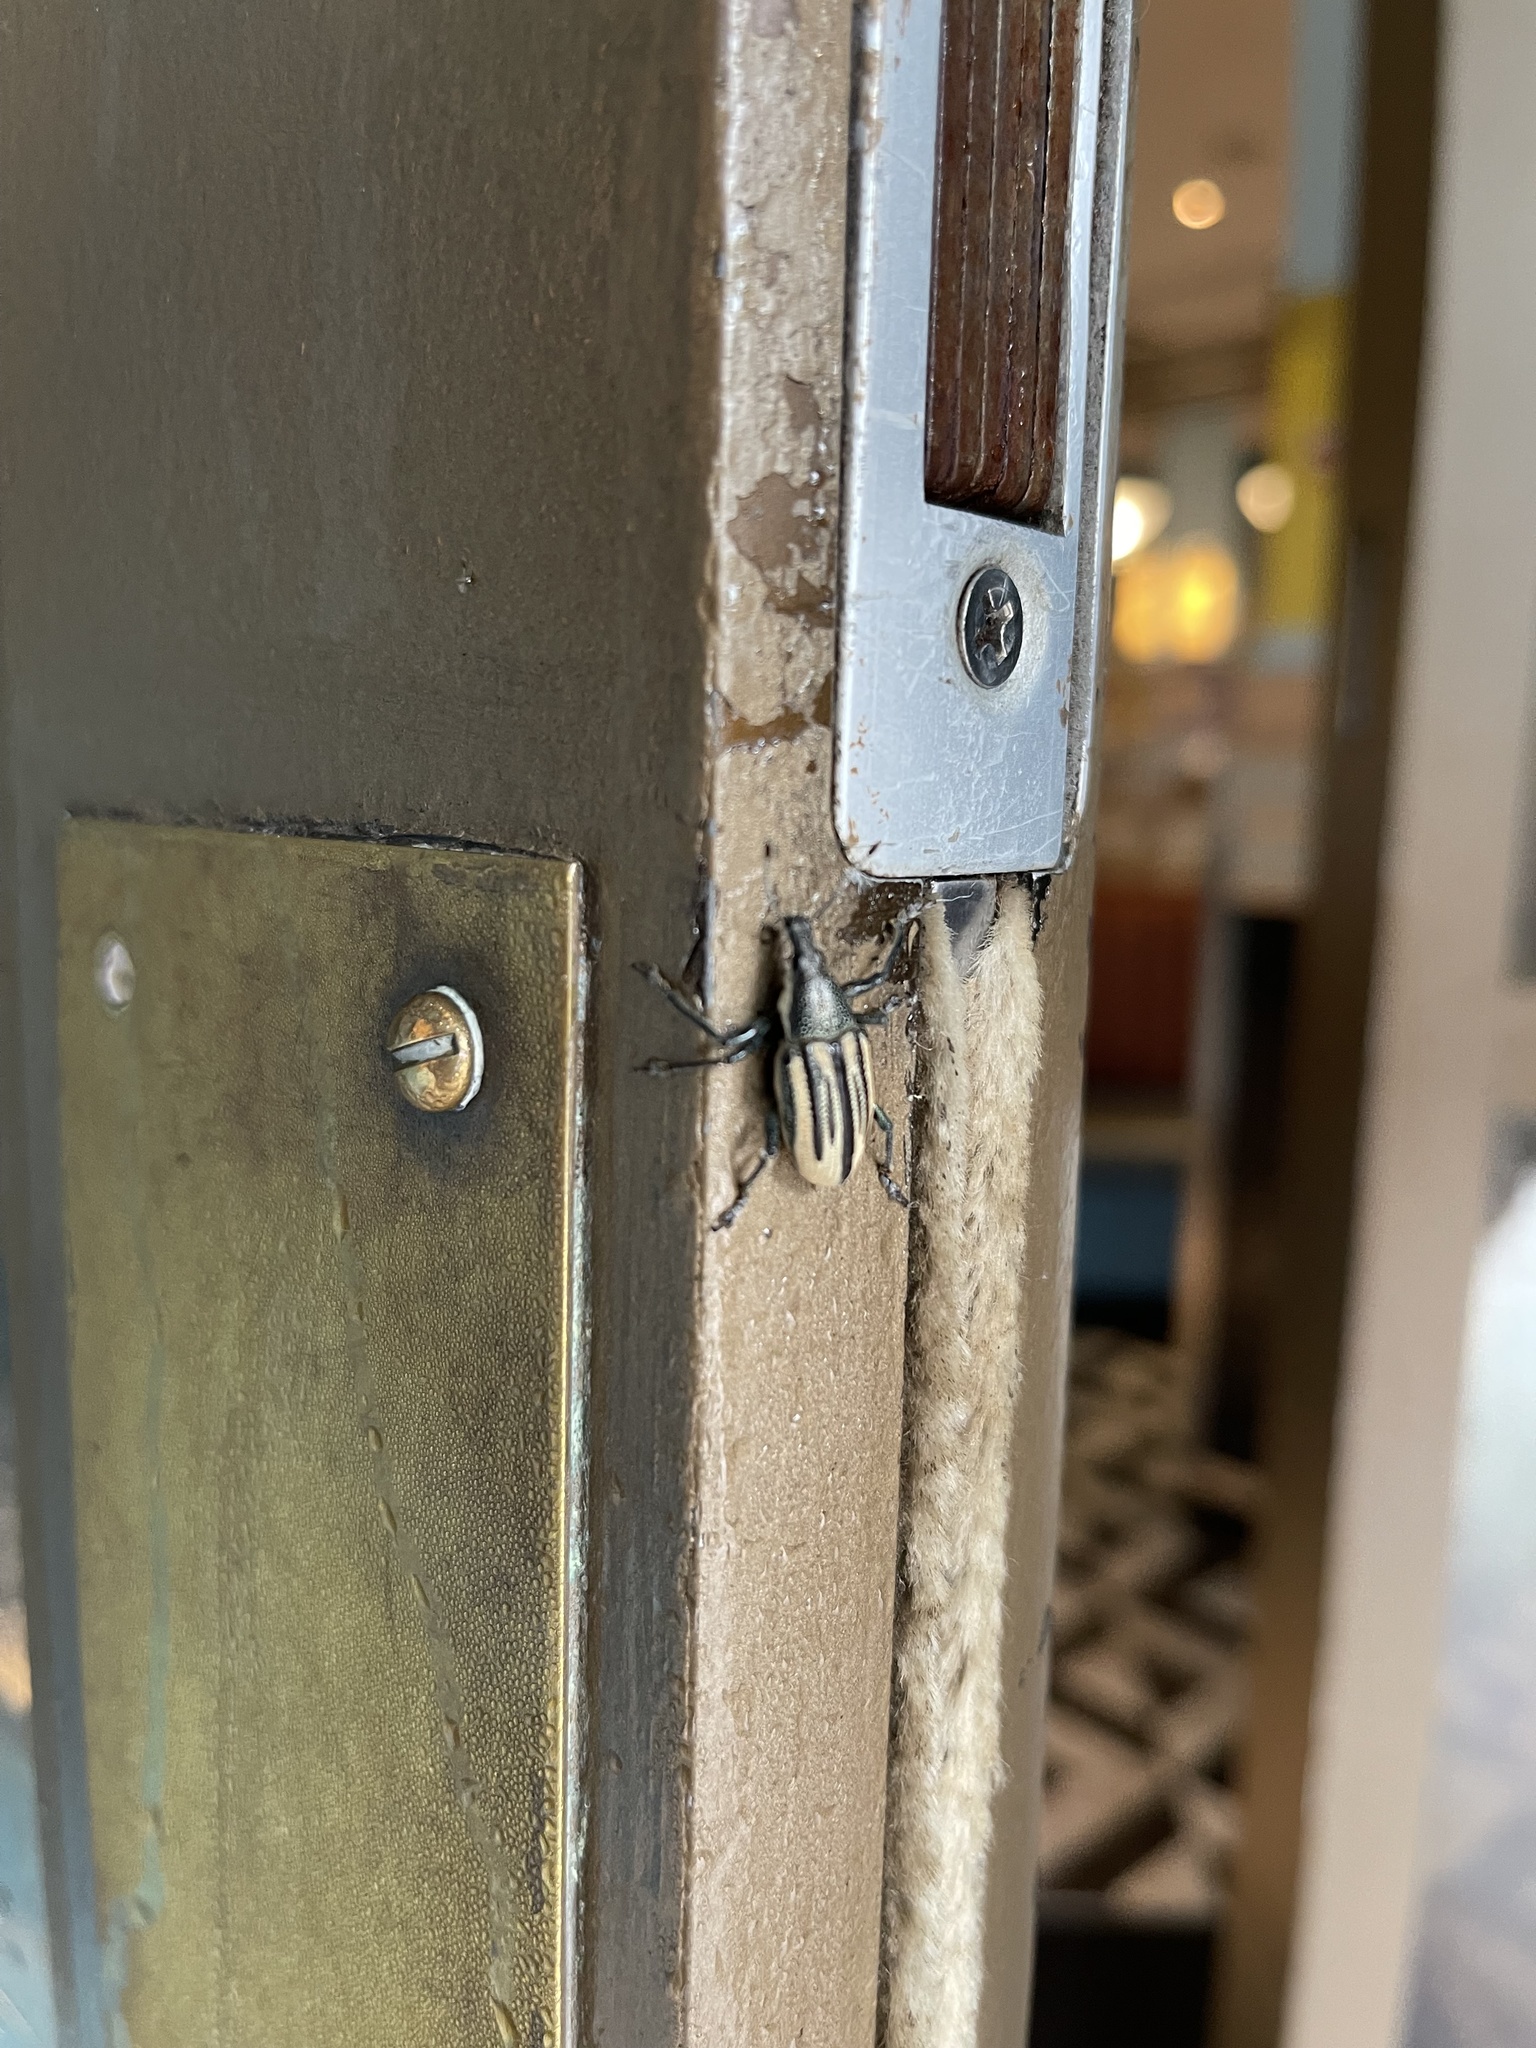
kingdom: Animalia
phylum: Arthropoda
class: Insecta
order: Coleoptera
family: Curculionidae
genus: Diaprepes
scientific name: Diaprepes abbreviatus
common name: Root weevil
